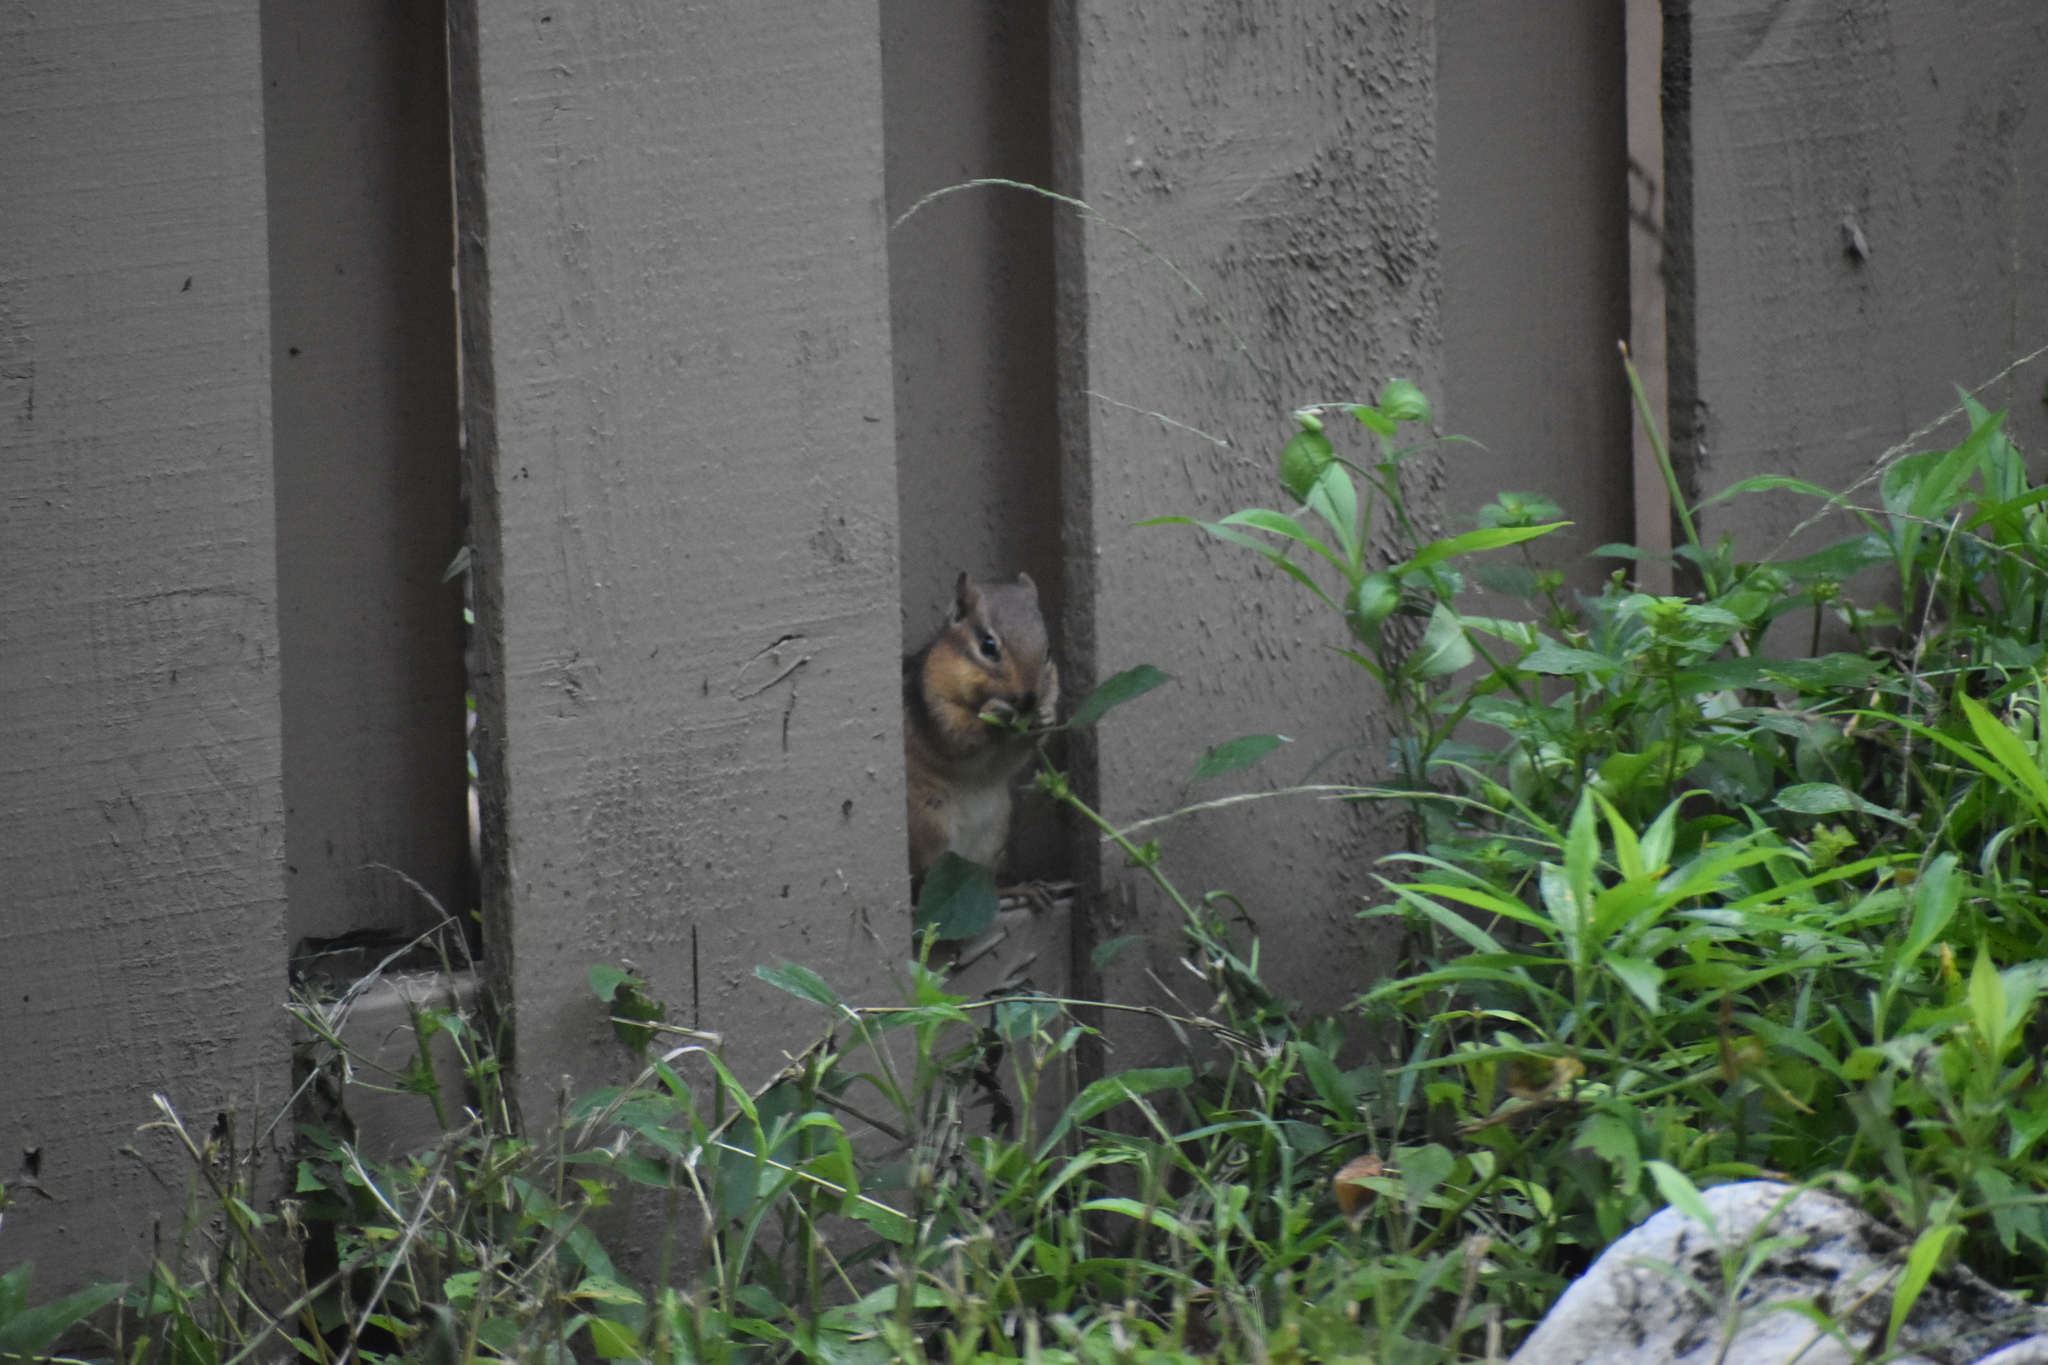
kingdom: Animalia
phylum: Chordata
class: Mammalia
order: Rodentia
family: Sciuridae
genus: Tamias
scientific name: Tamias striatus
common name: Eastern chipmunk
